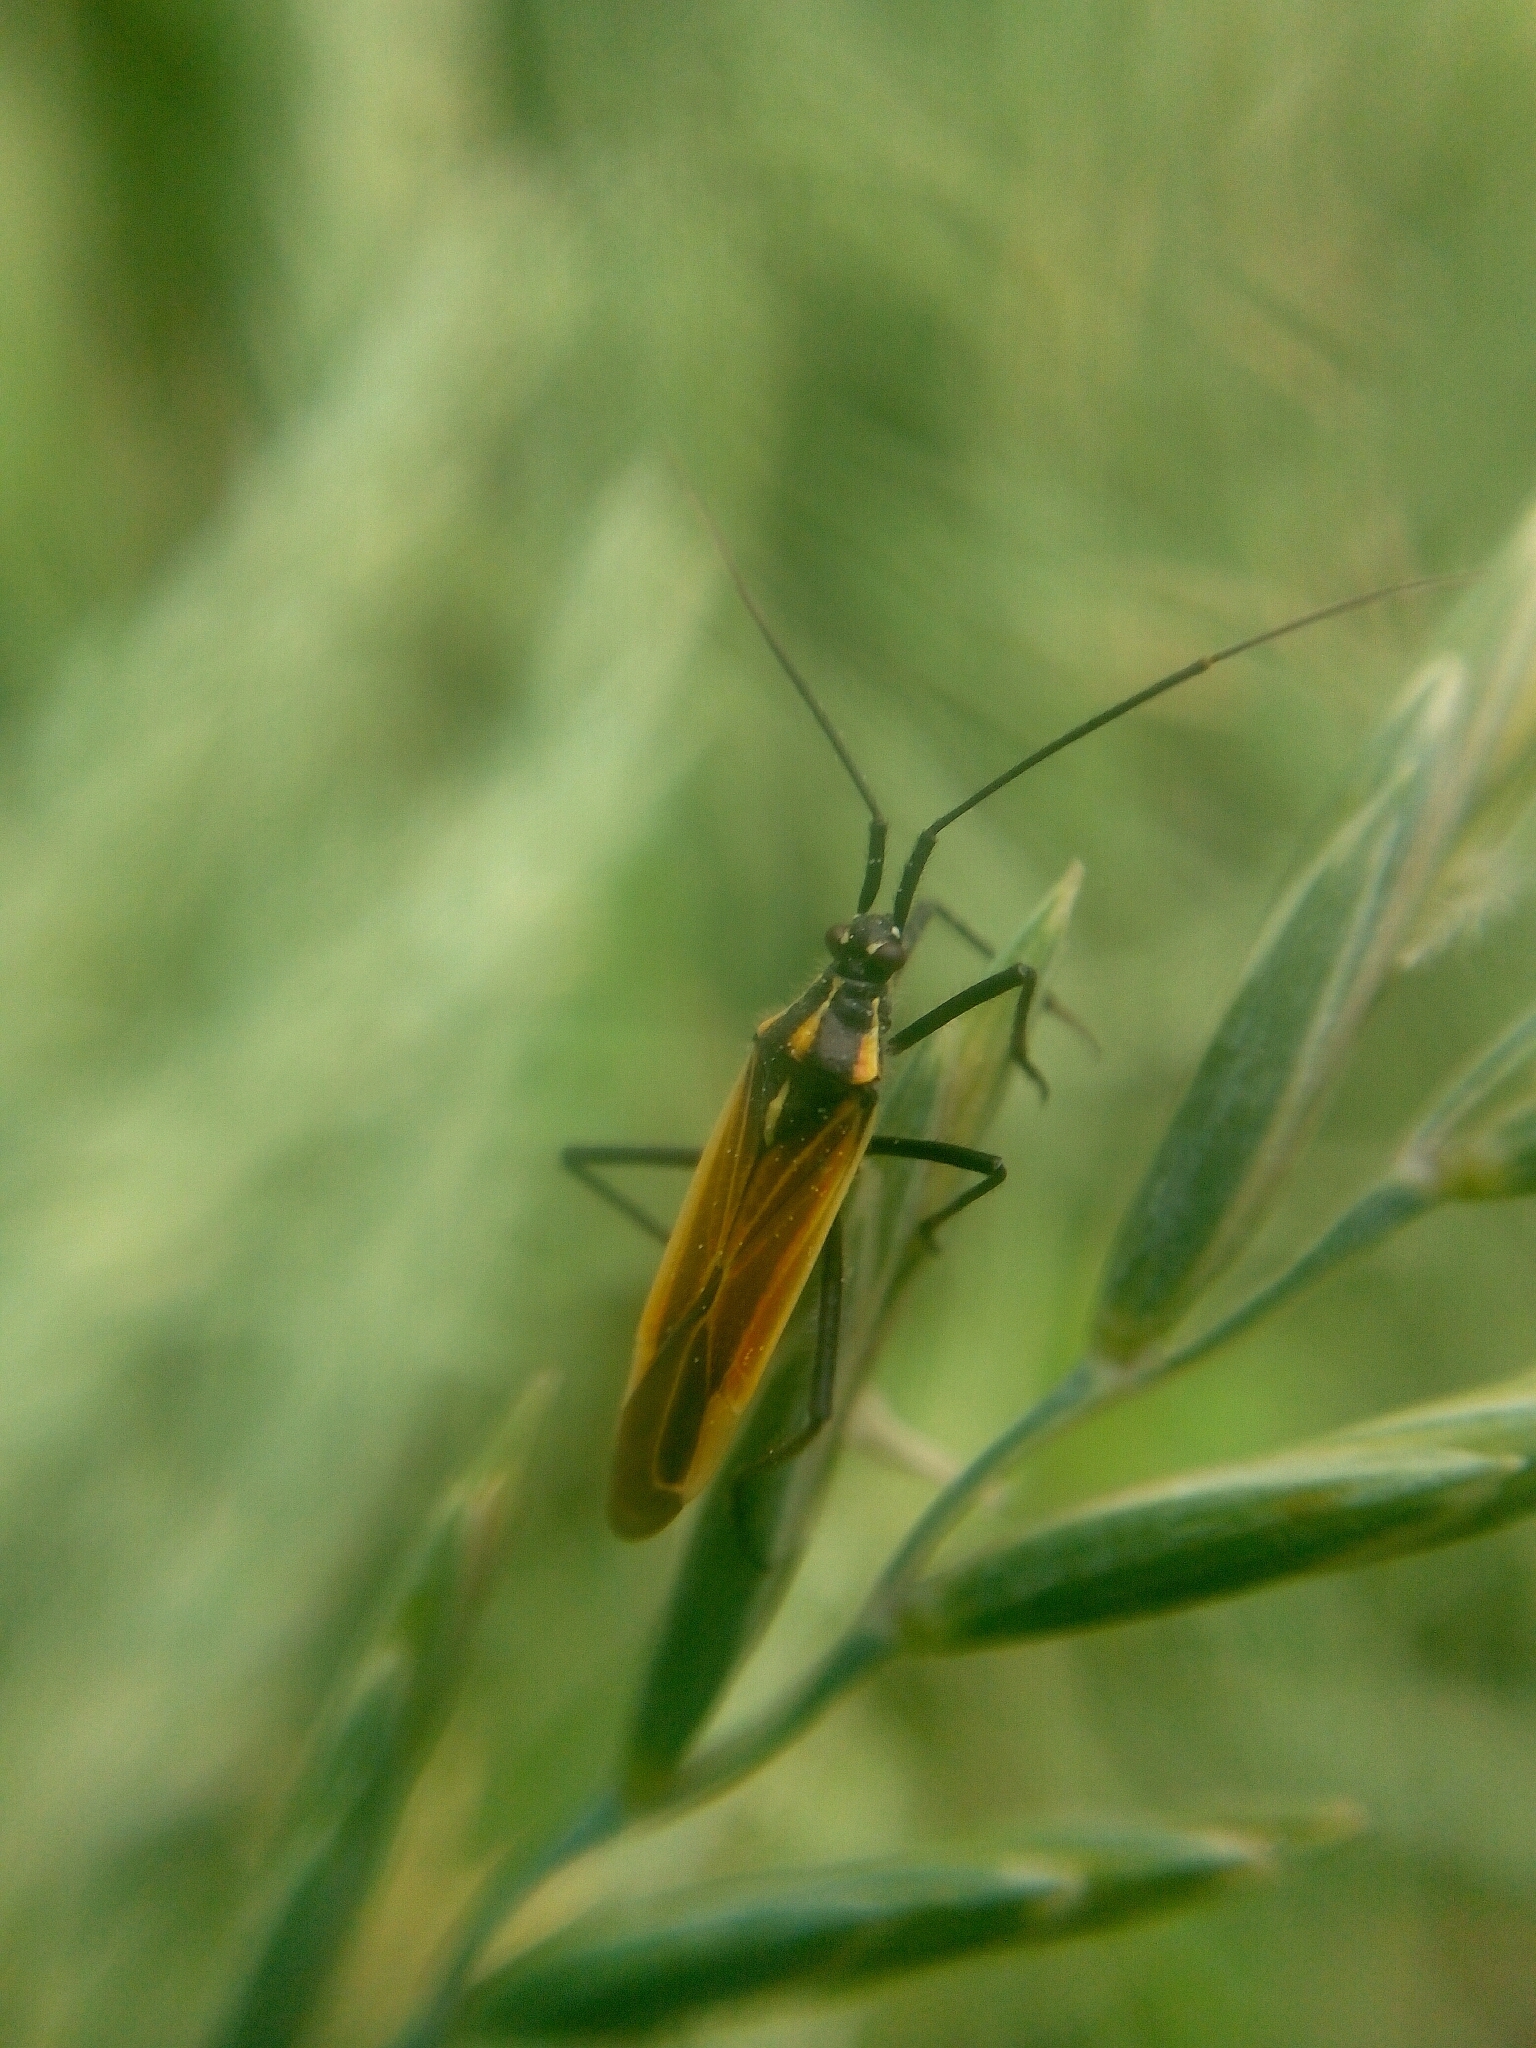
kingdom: Animalia
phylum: Arthropoda
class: Insecta
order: Hemiptera
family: Miridae
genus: Leptopterna
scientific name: Leptopterna dolabrata
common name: Meadow plant bug
